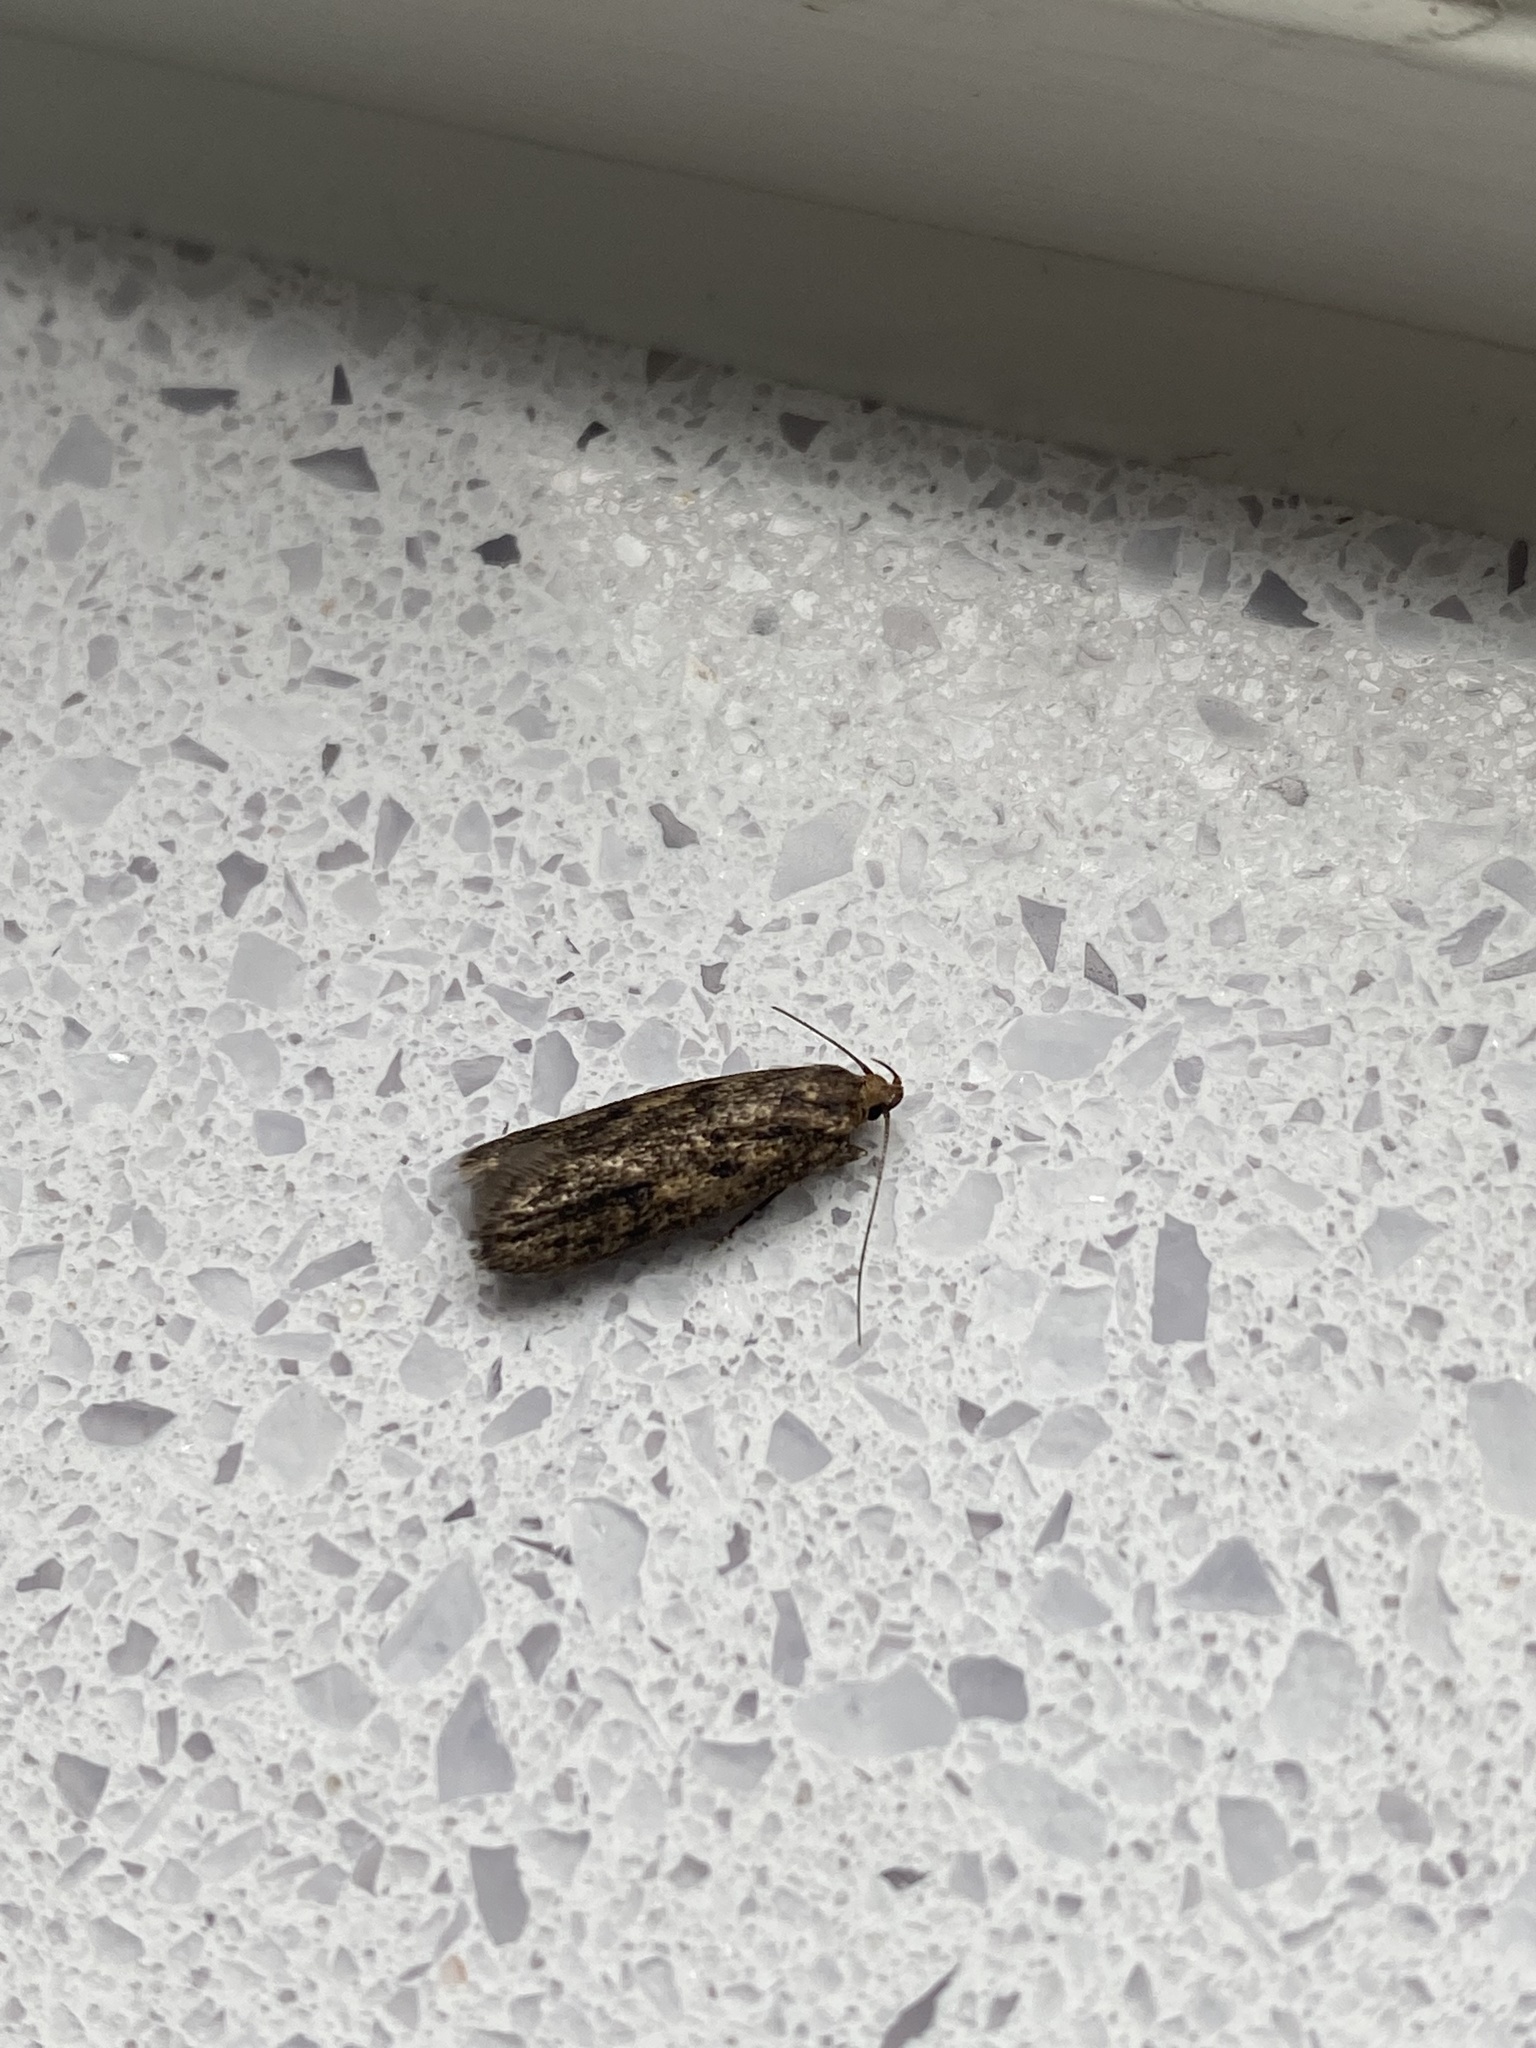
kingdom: Animalia
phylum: Arthropoda
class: Insecta
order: Lepidoptera
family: Oecophoridae
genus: Hofmannophila
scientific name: Hofmannophila pseudospretella
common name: Brown house moth
